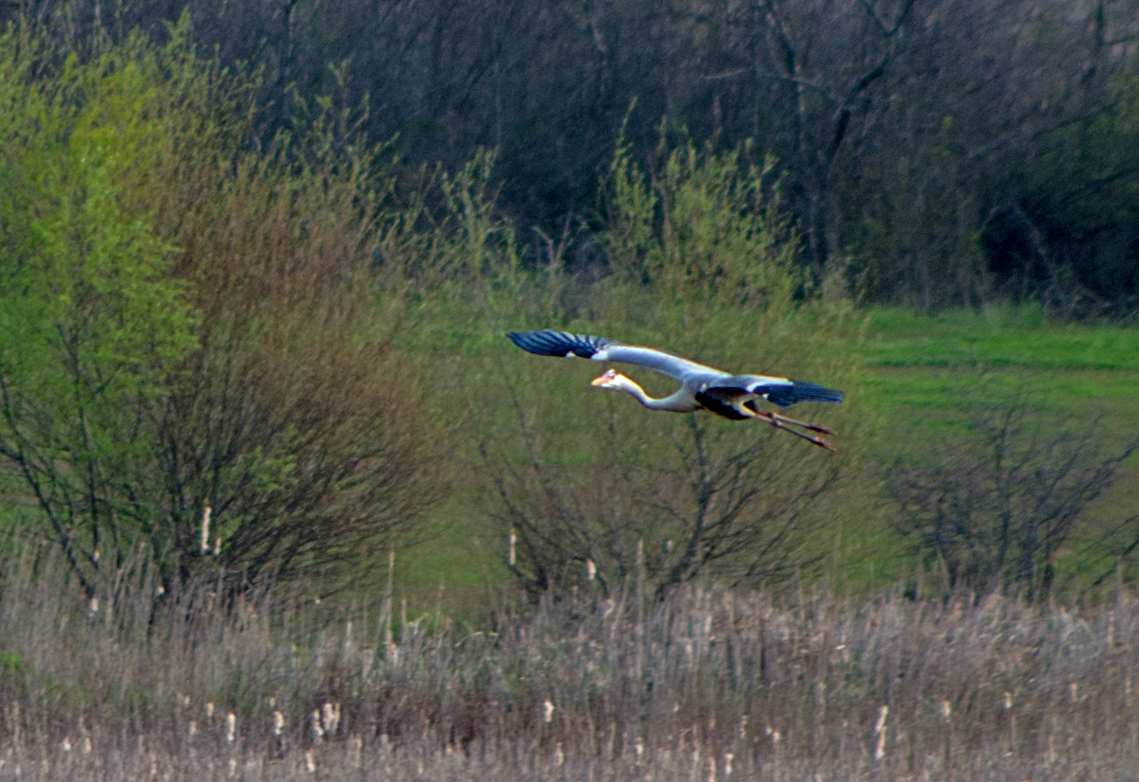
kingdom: Animalia
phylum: Chordata
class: Aves
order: Pelecaniformes
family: Ardeidae
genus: Ardea
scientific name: Ardea cinerea
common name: Grey heron
